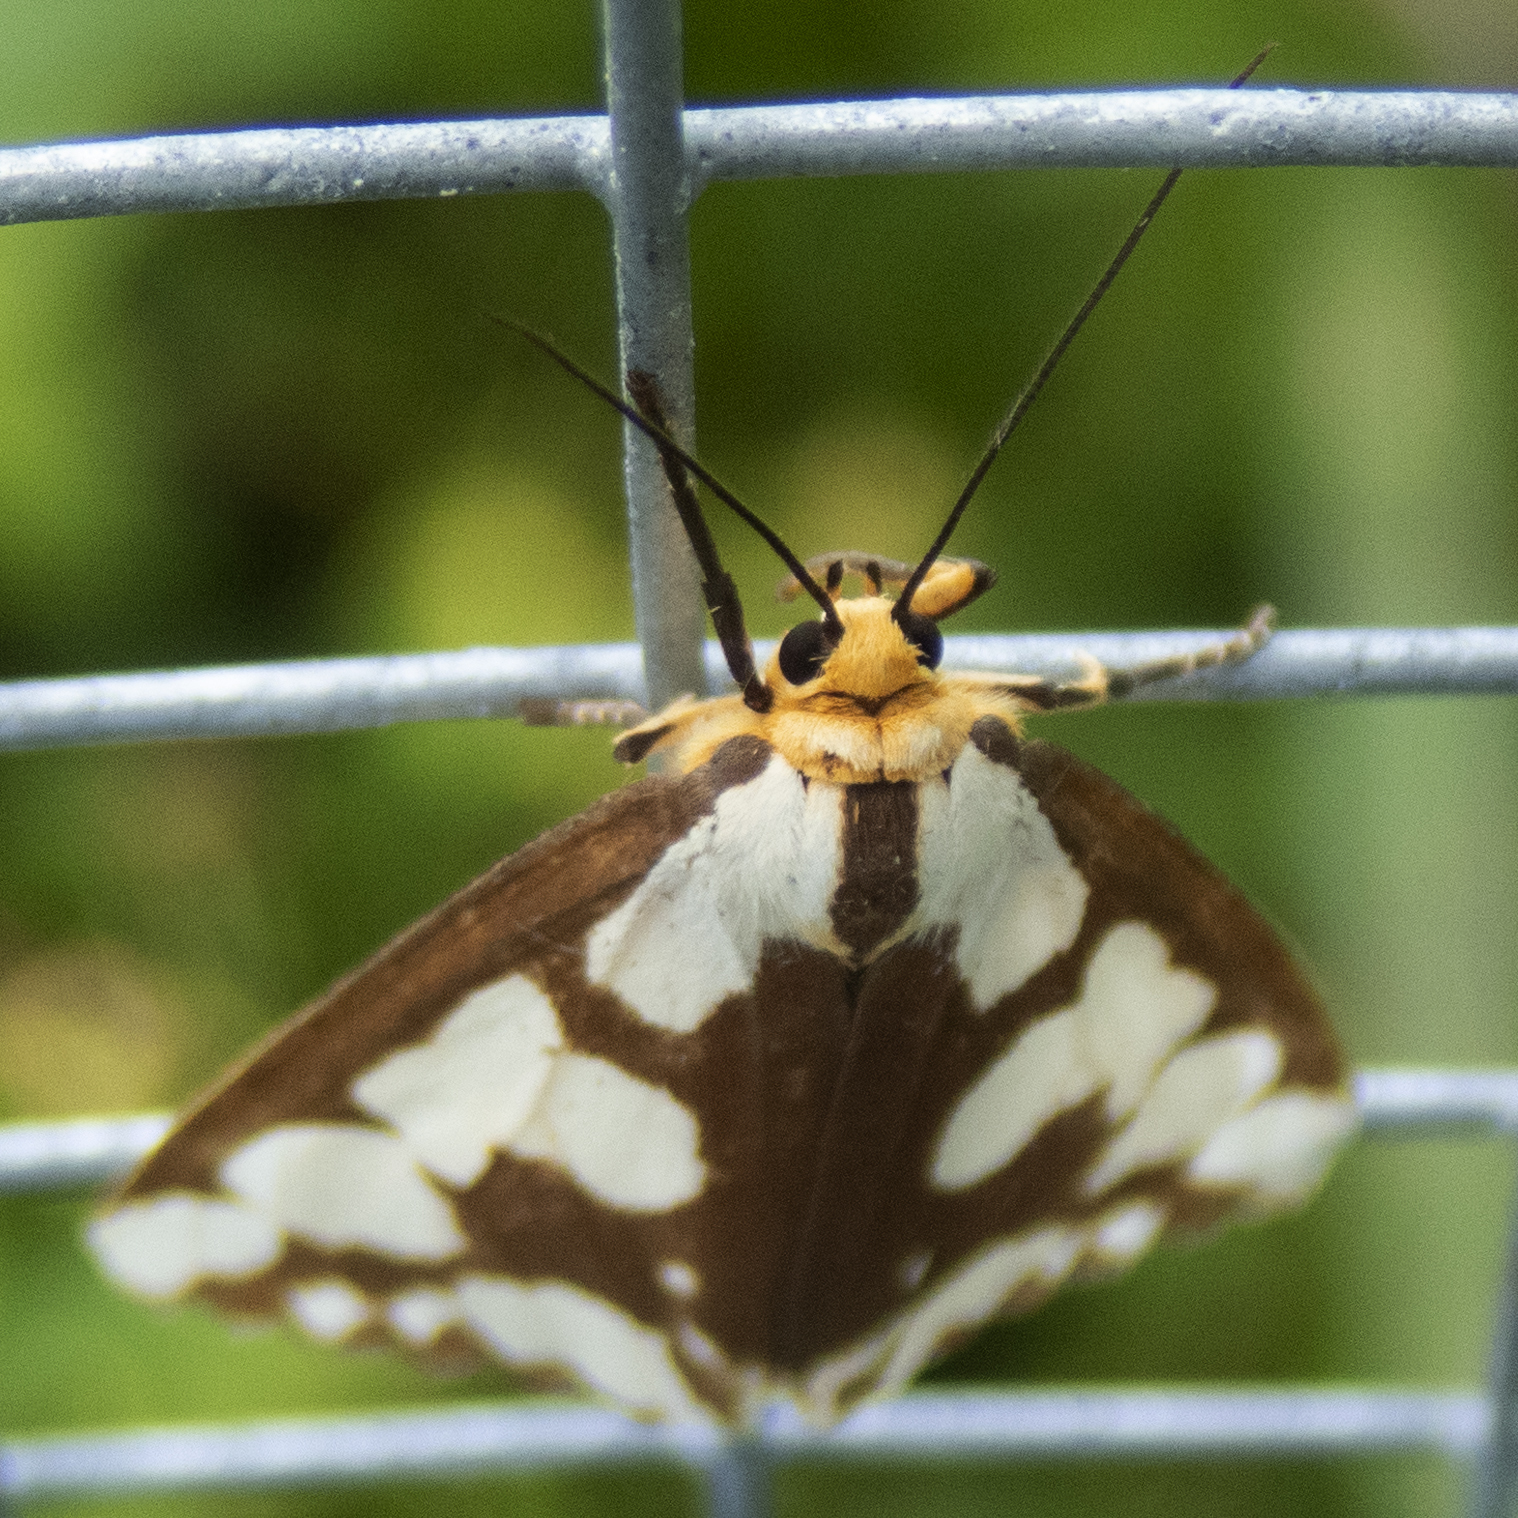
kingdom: Animalia
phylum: Arthropoda
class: Insecta
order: Lepidoptera
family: Erebidae
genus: Haploa
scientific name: Haploa confusa
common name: Confused haploa moth
